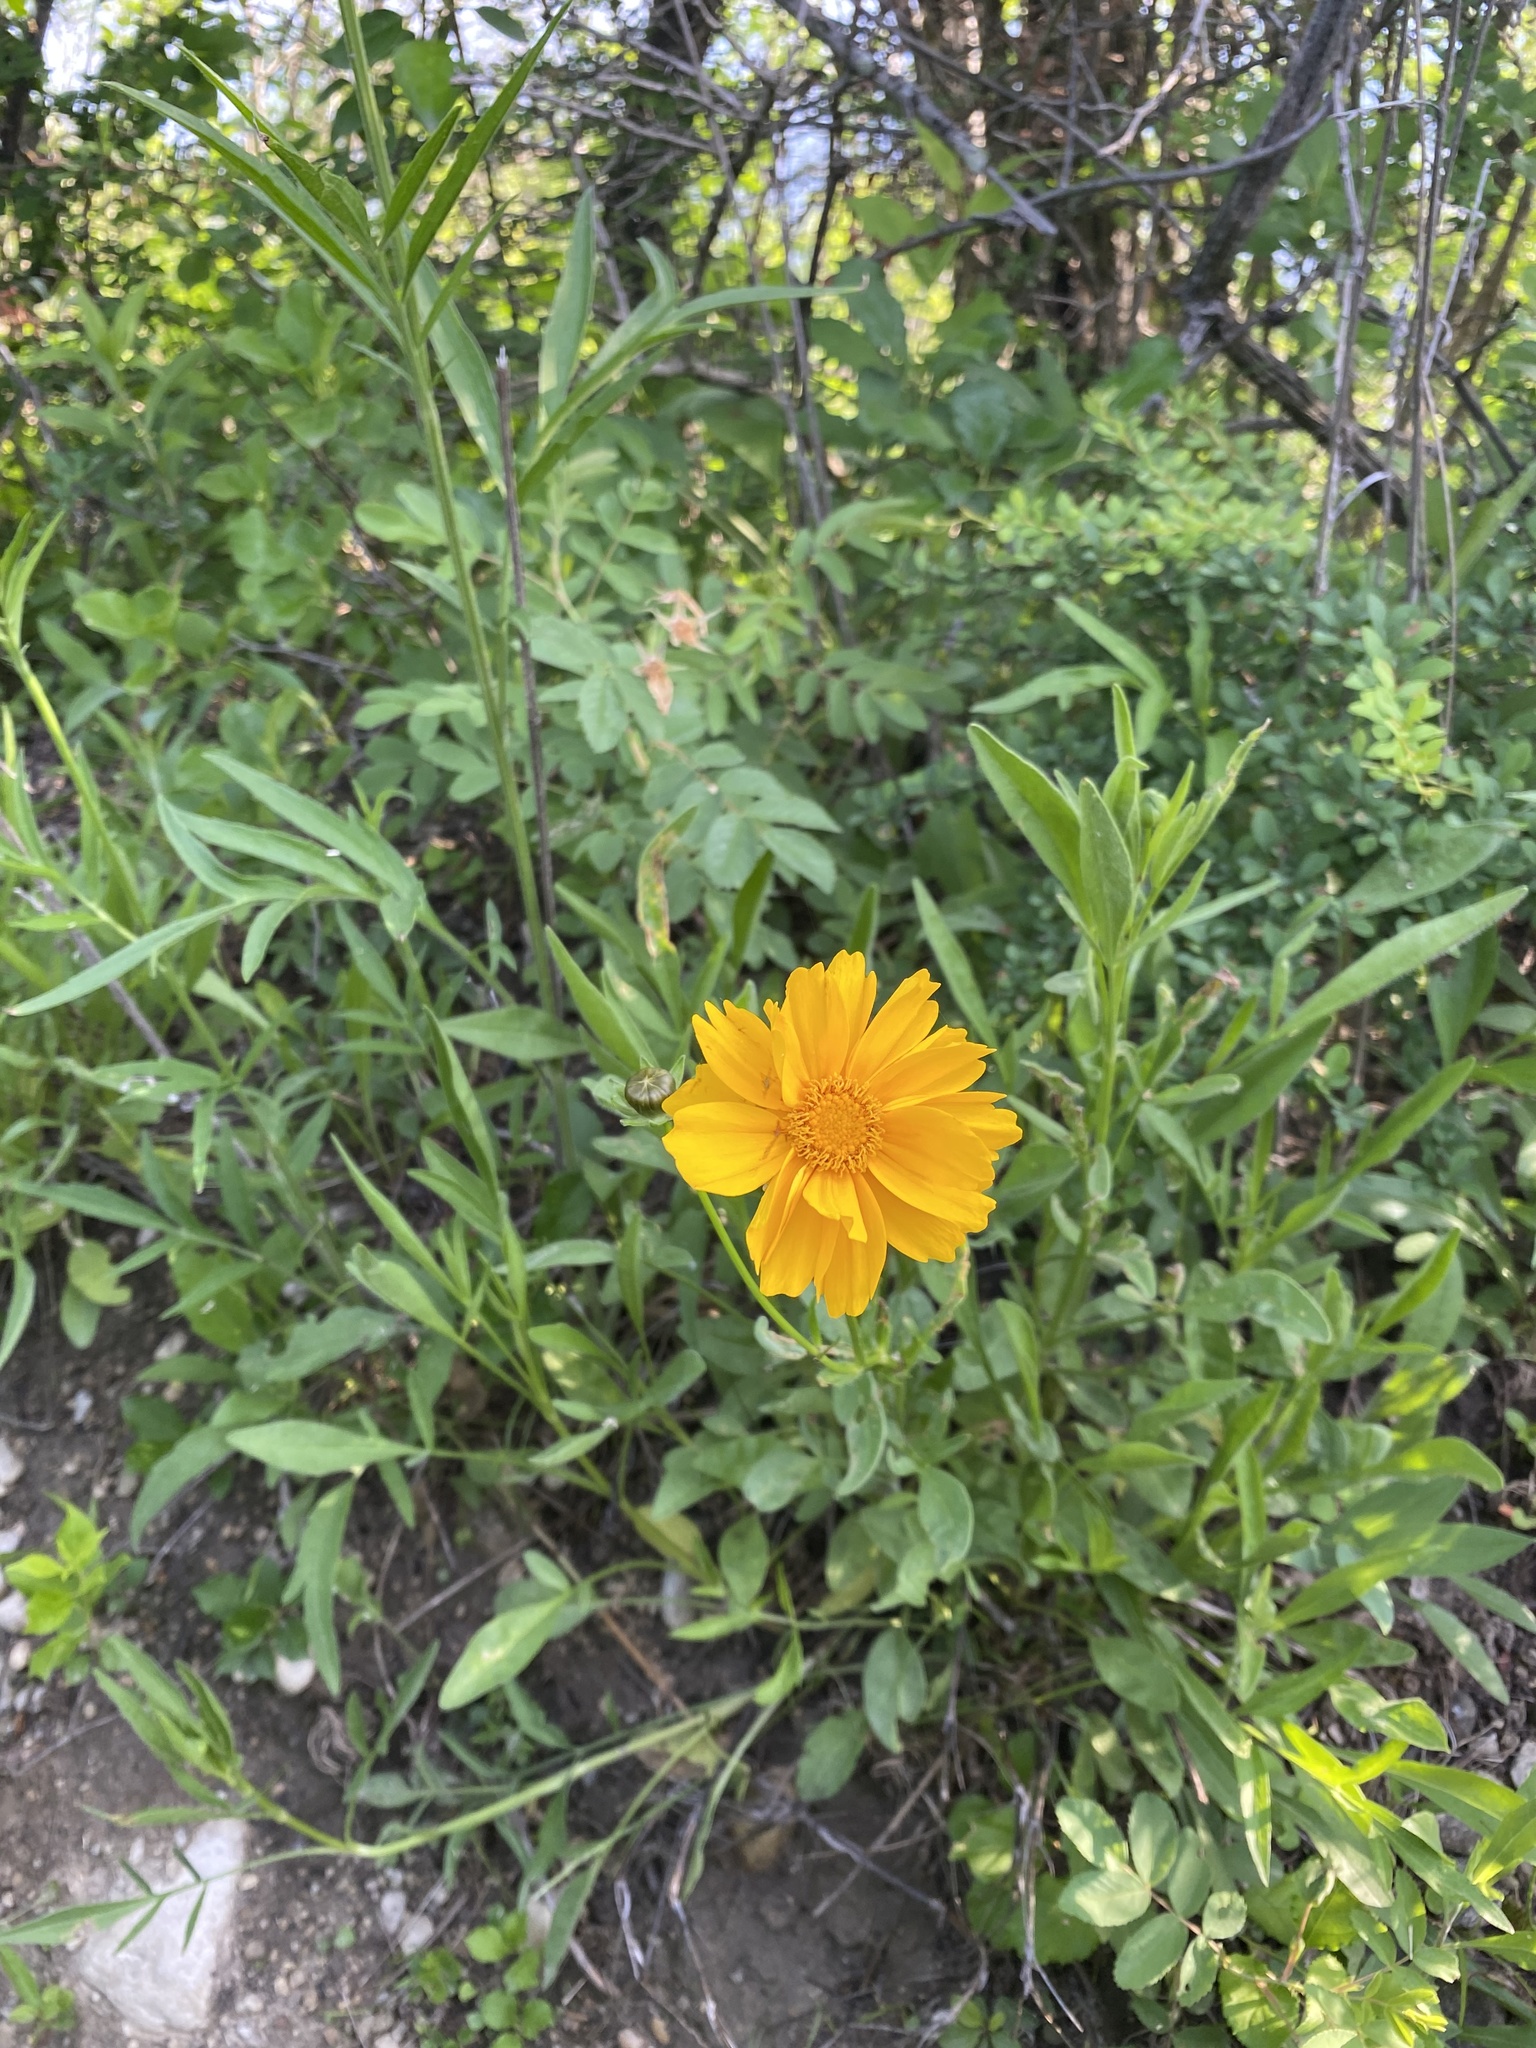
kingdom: Plantae
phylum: Tracheophyta
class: Magnoliopsida
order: Asterales
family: Asteraceae
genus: Coreopsis
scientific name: Coreopsis lanceolata
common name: Garden coreopsis
